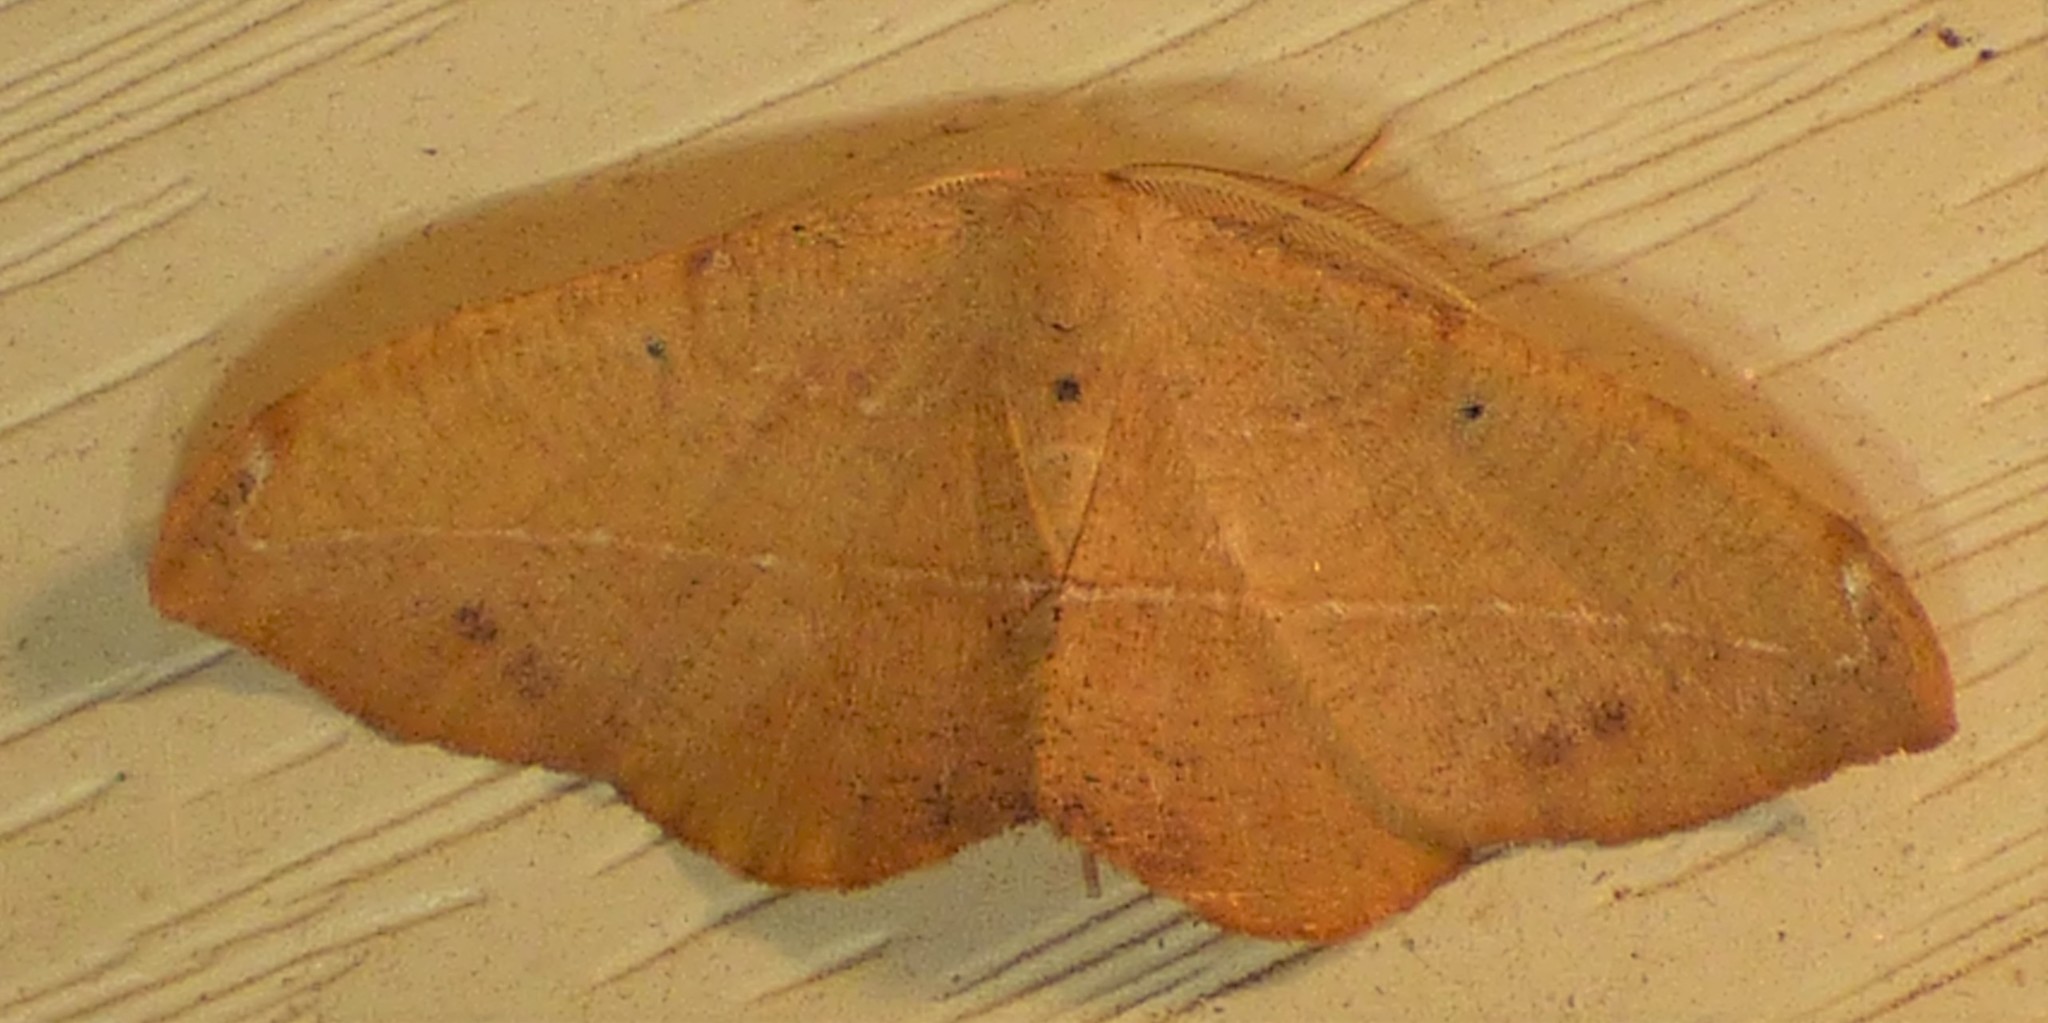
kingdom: Animalia
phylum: Arthropoda
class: Insecta
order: Lepidoptera
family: Geometridae
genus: Patalene
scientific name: Patalene olyzonaria
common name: Juniper geometer moth
